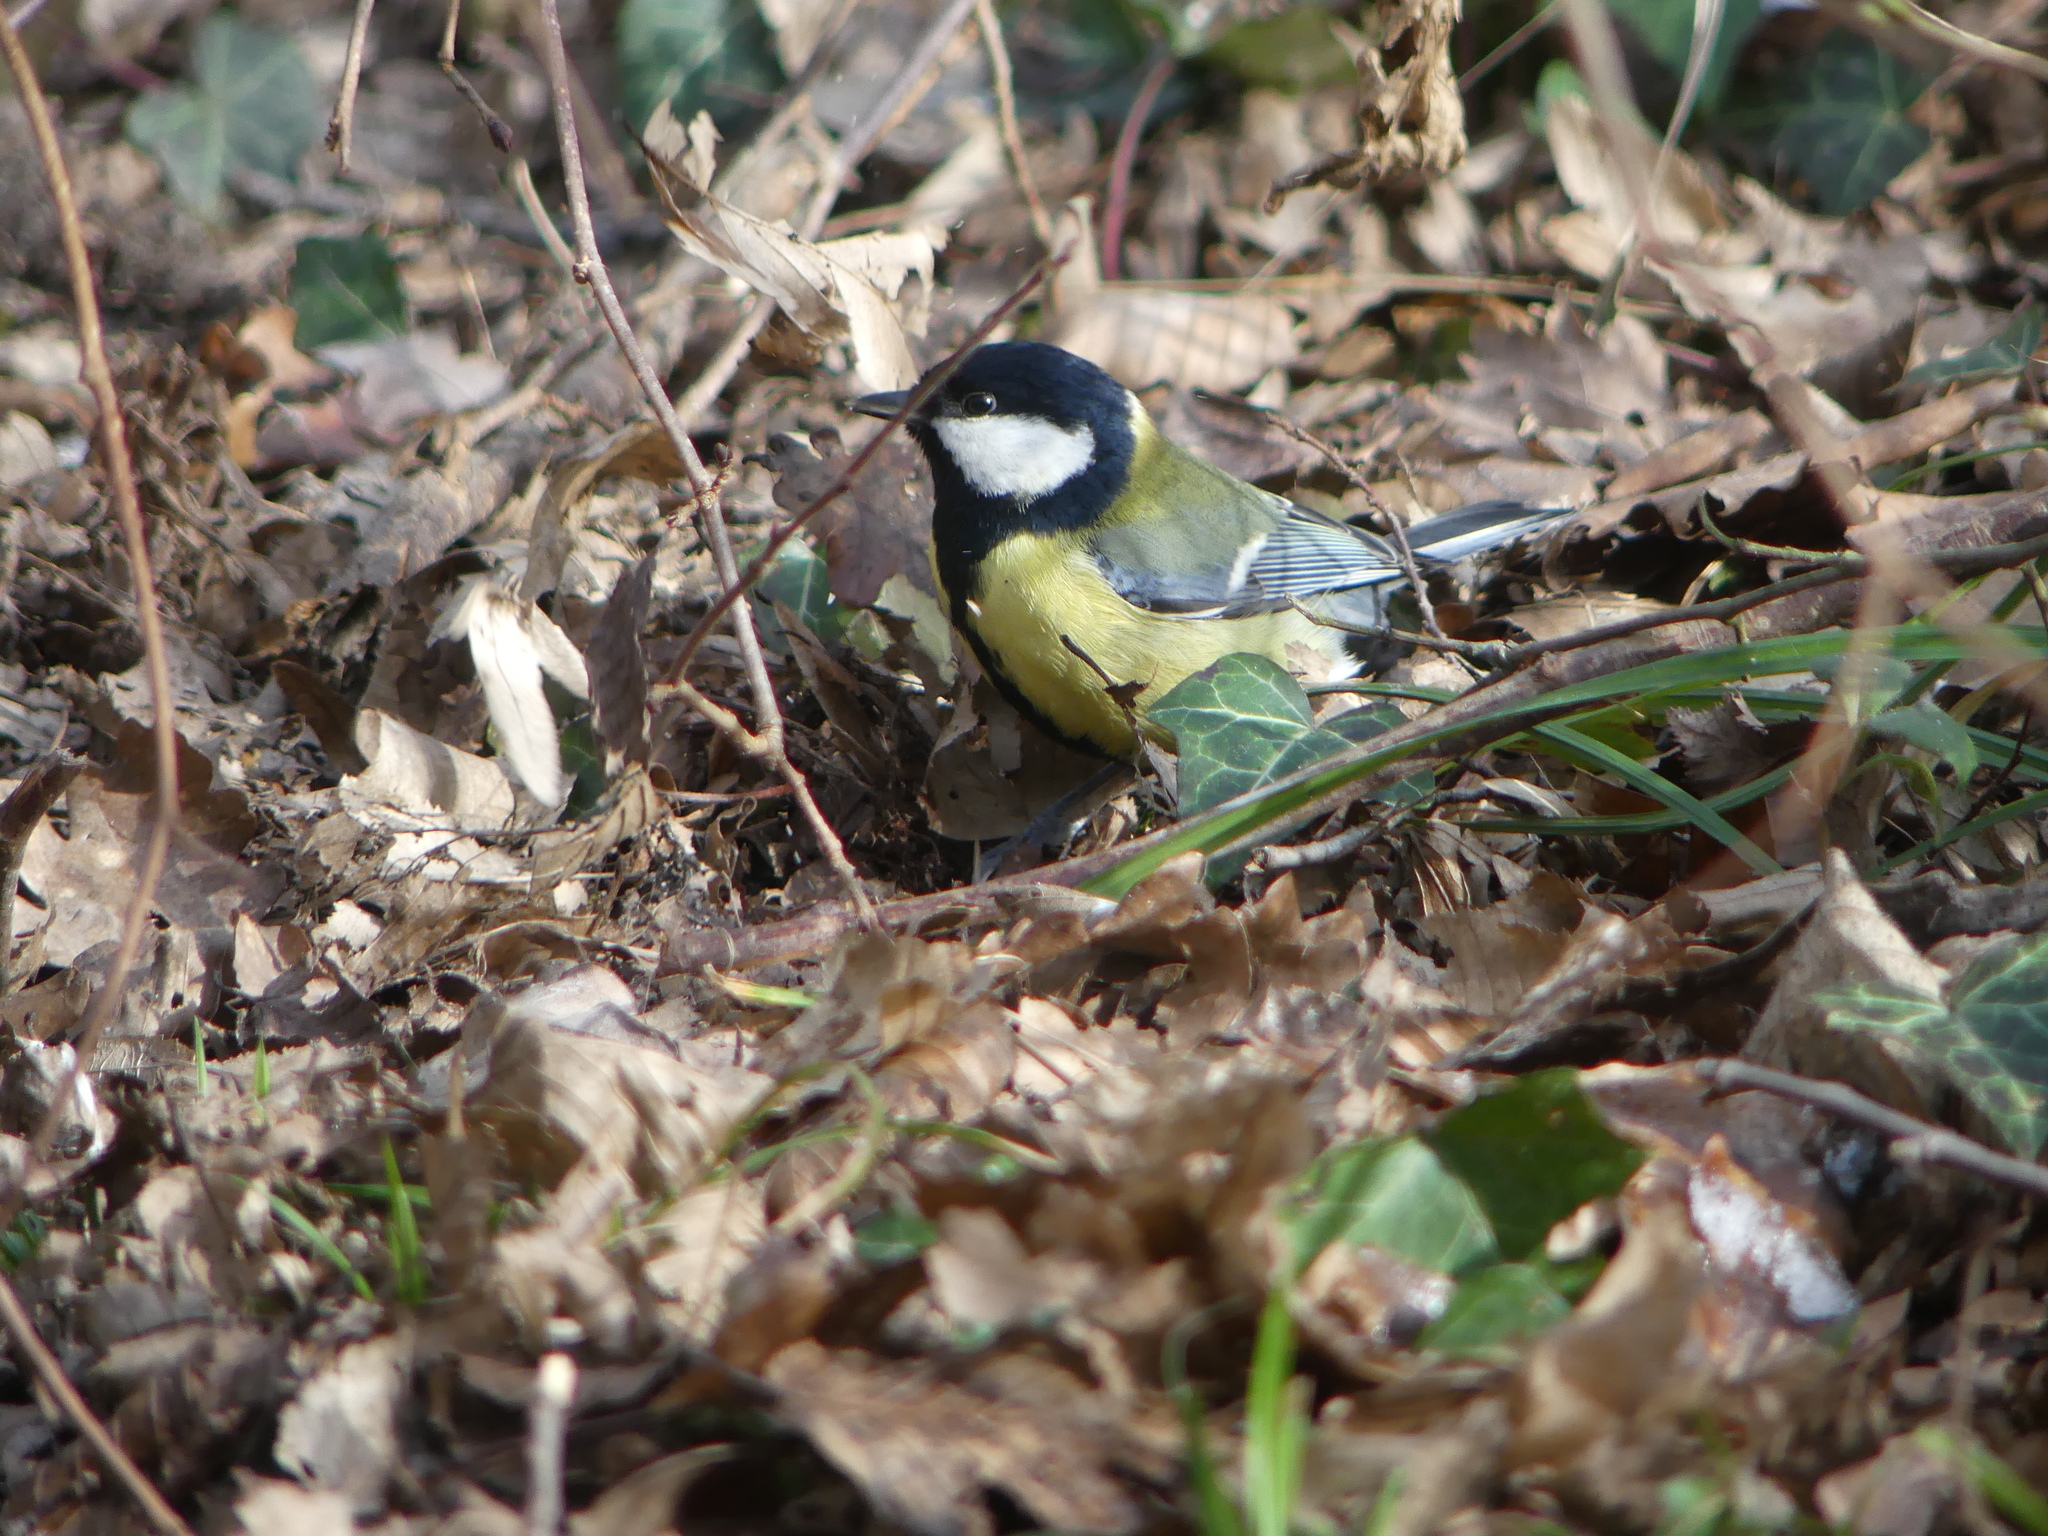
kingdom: Animalia
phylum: Chordata
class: Aves
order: Passeriformes
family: Paridae
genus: Parus
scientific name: Parus major
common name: Great tit
